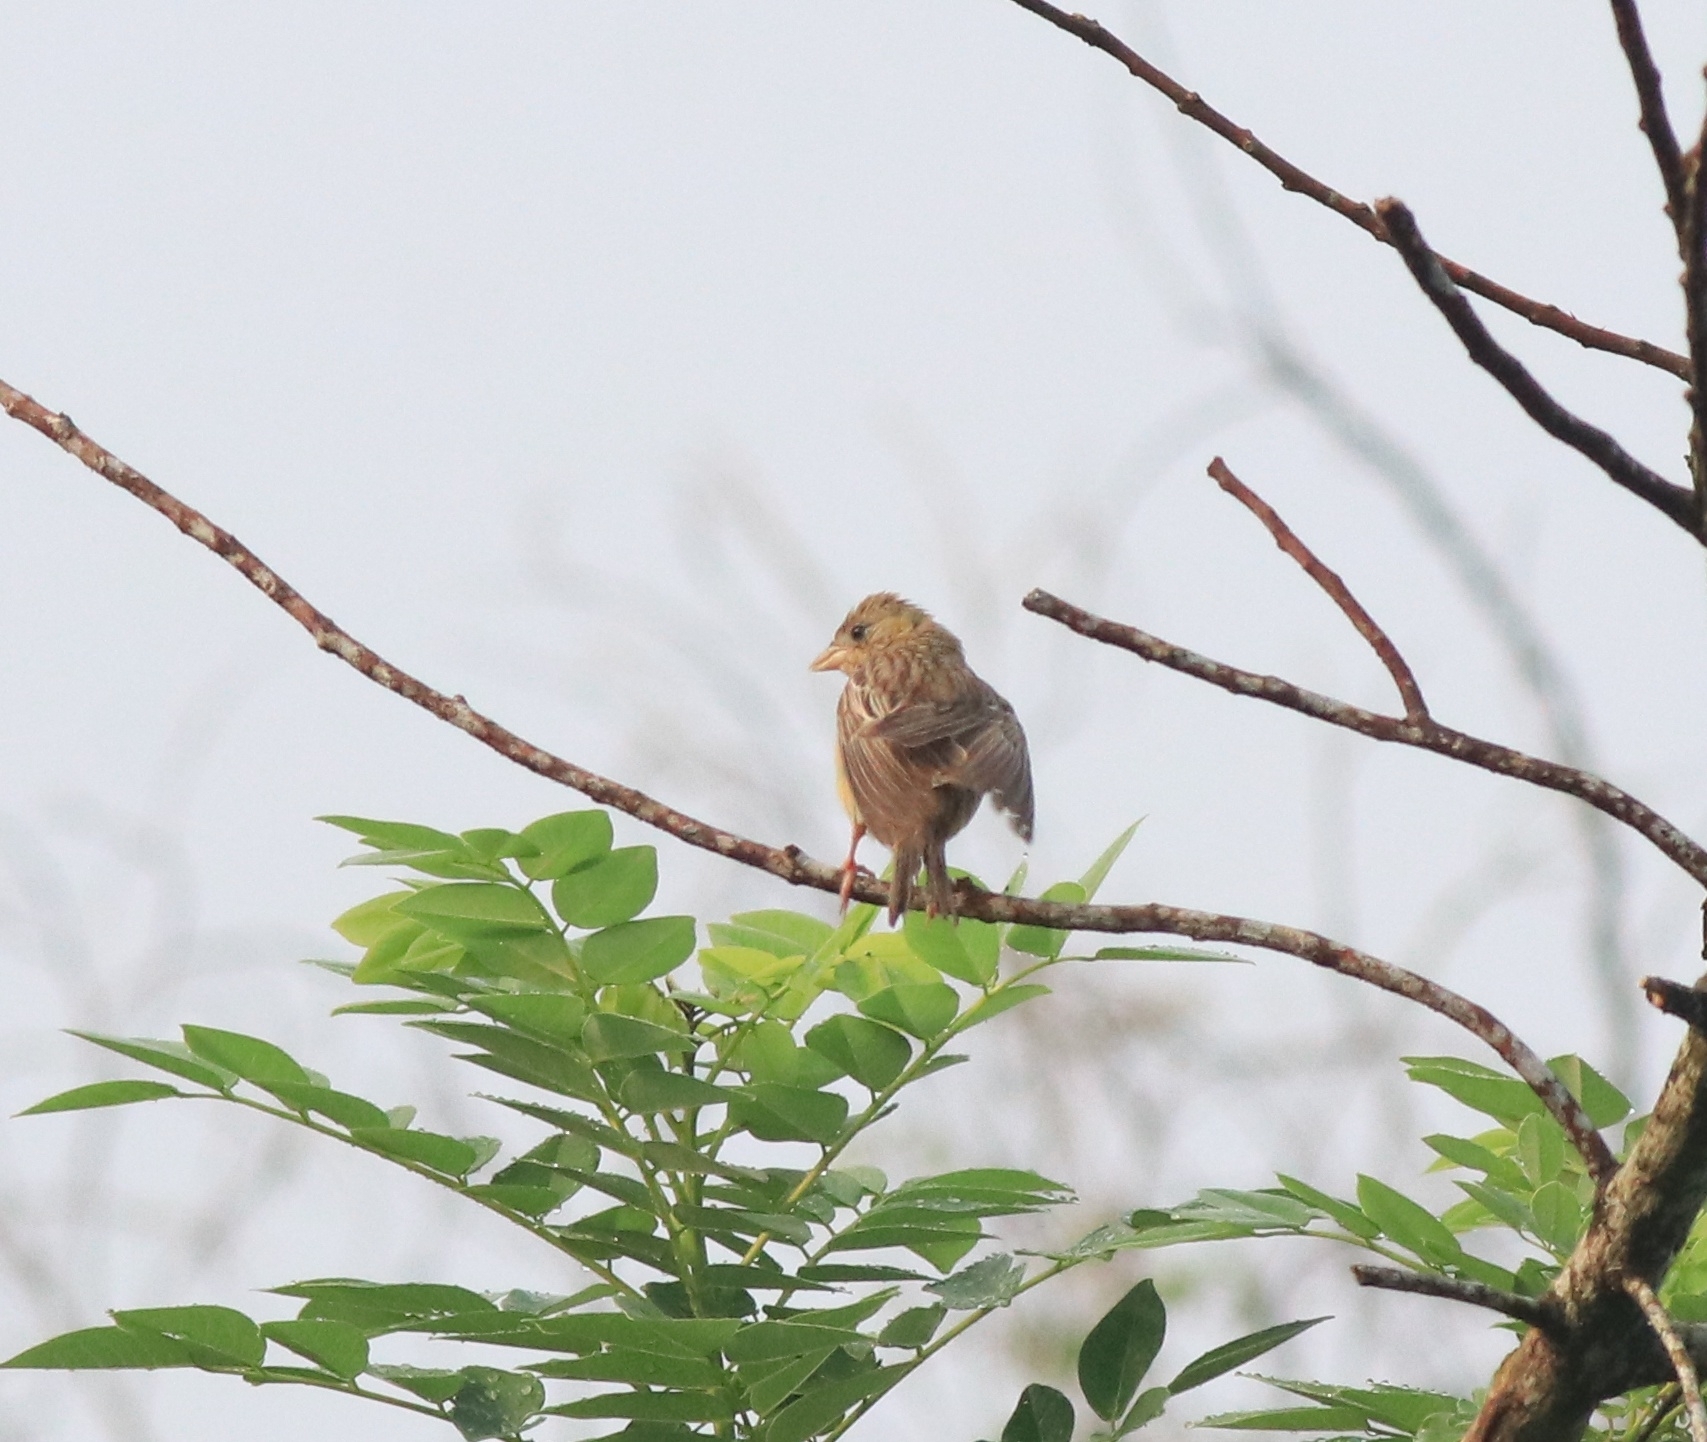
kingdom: Animalia
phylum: Chordata
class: Aves
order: Passeriformes
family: Emberizidae
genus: Emberiza
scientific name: Emberiza melanocephala
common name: Black-headed bunting
